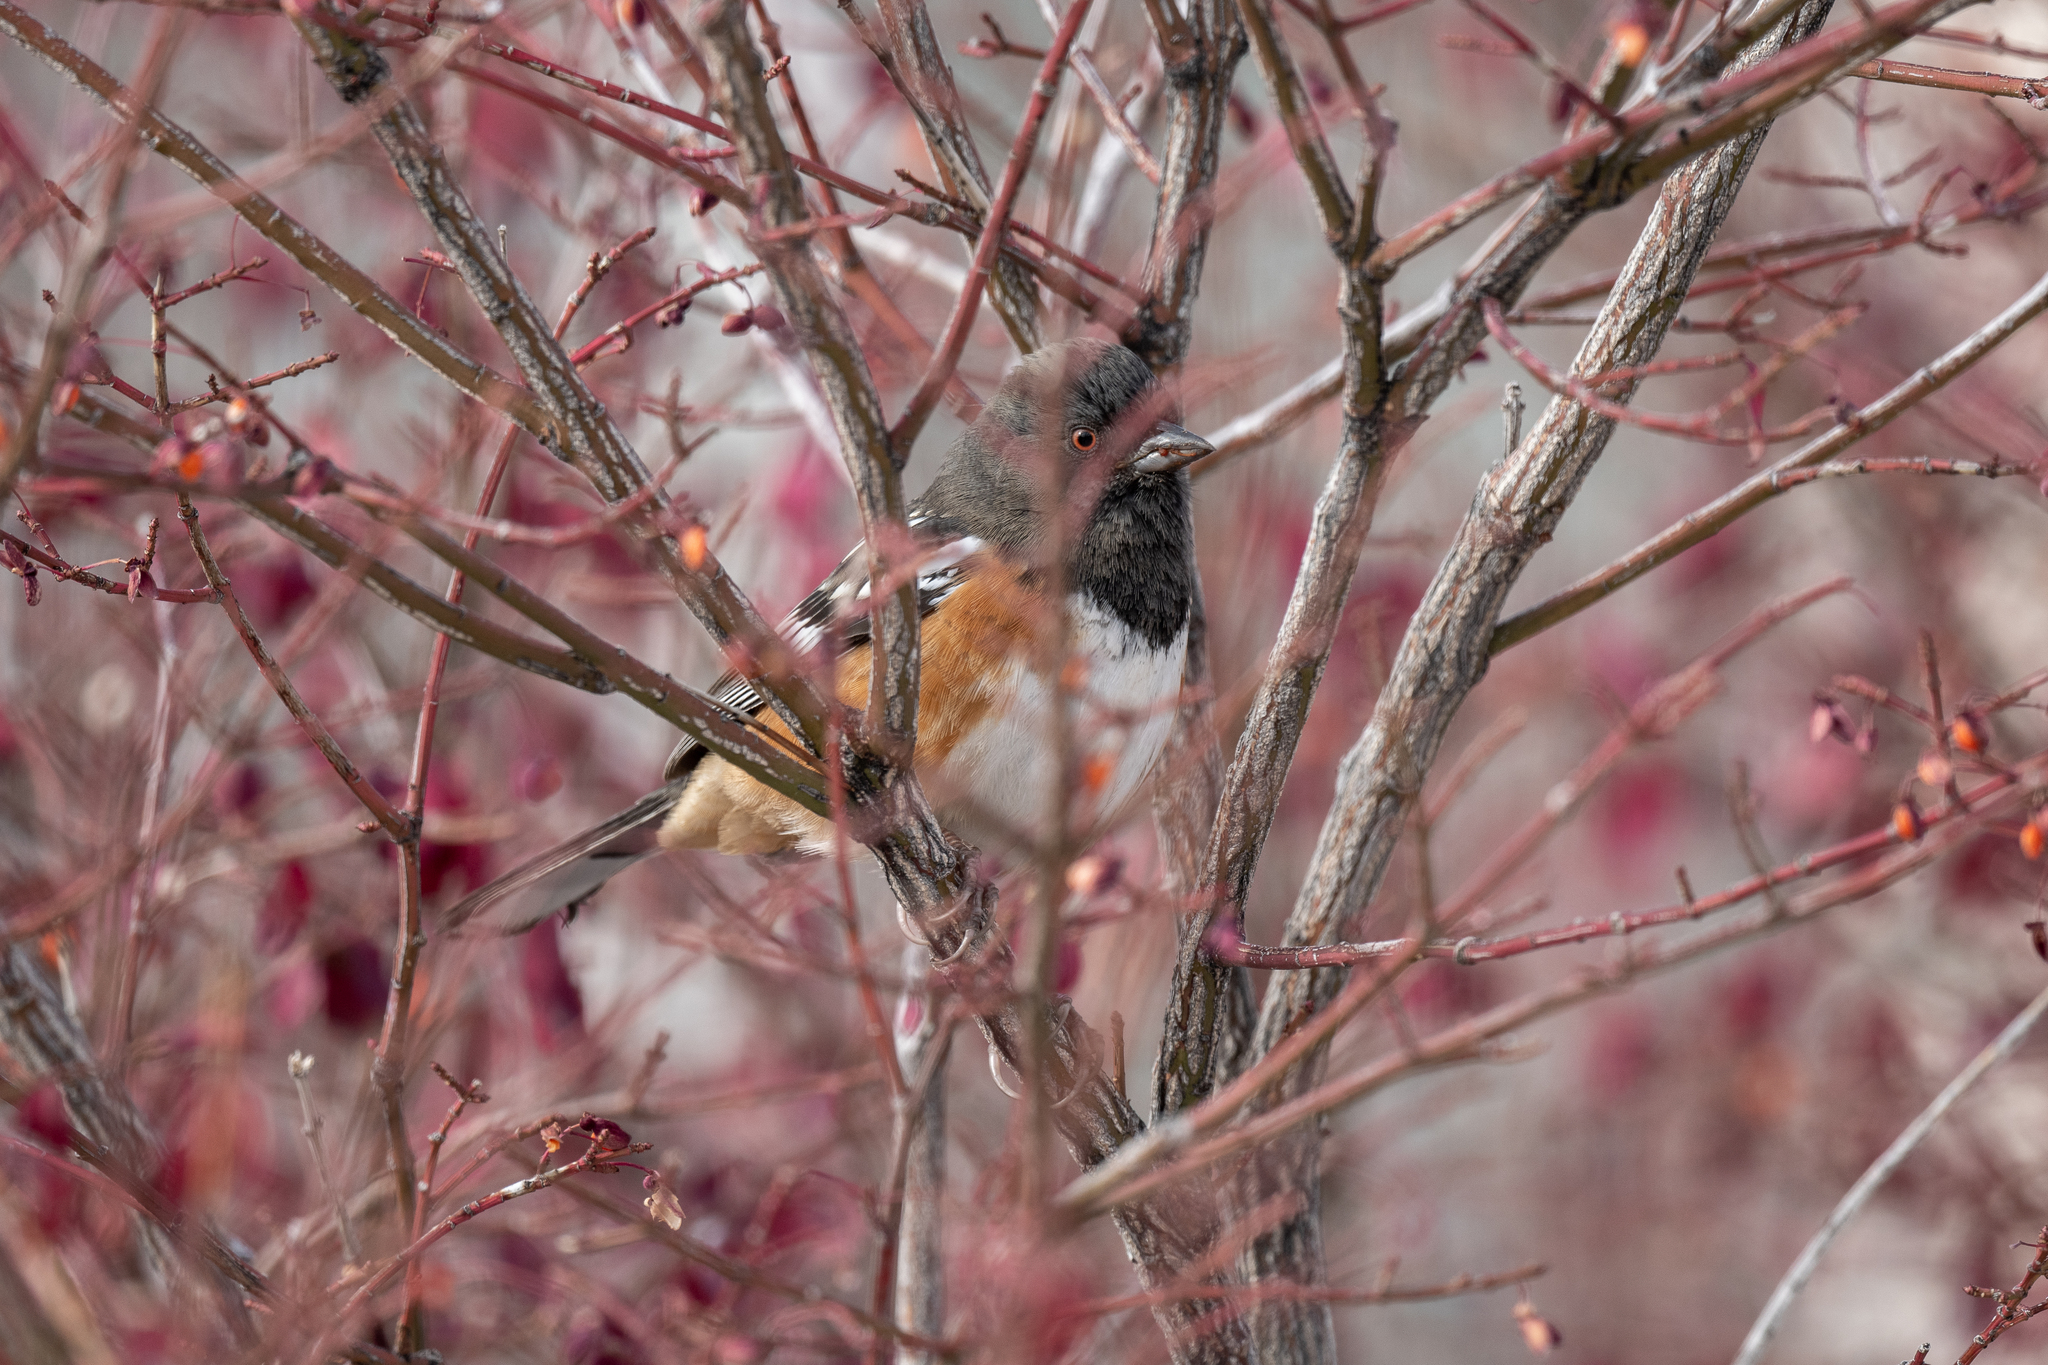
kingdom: Animalia
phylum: Chordata
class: Aves
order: Passeriformes
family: Passerellidae
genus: Pipilo
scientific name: Pipilo maculatus
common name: Spotted towhee
